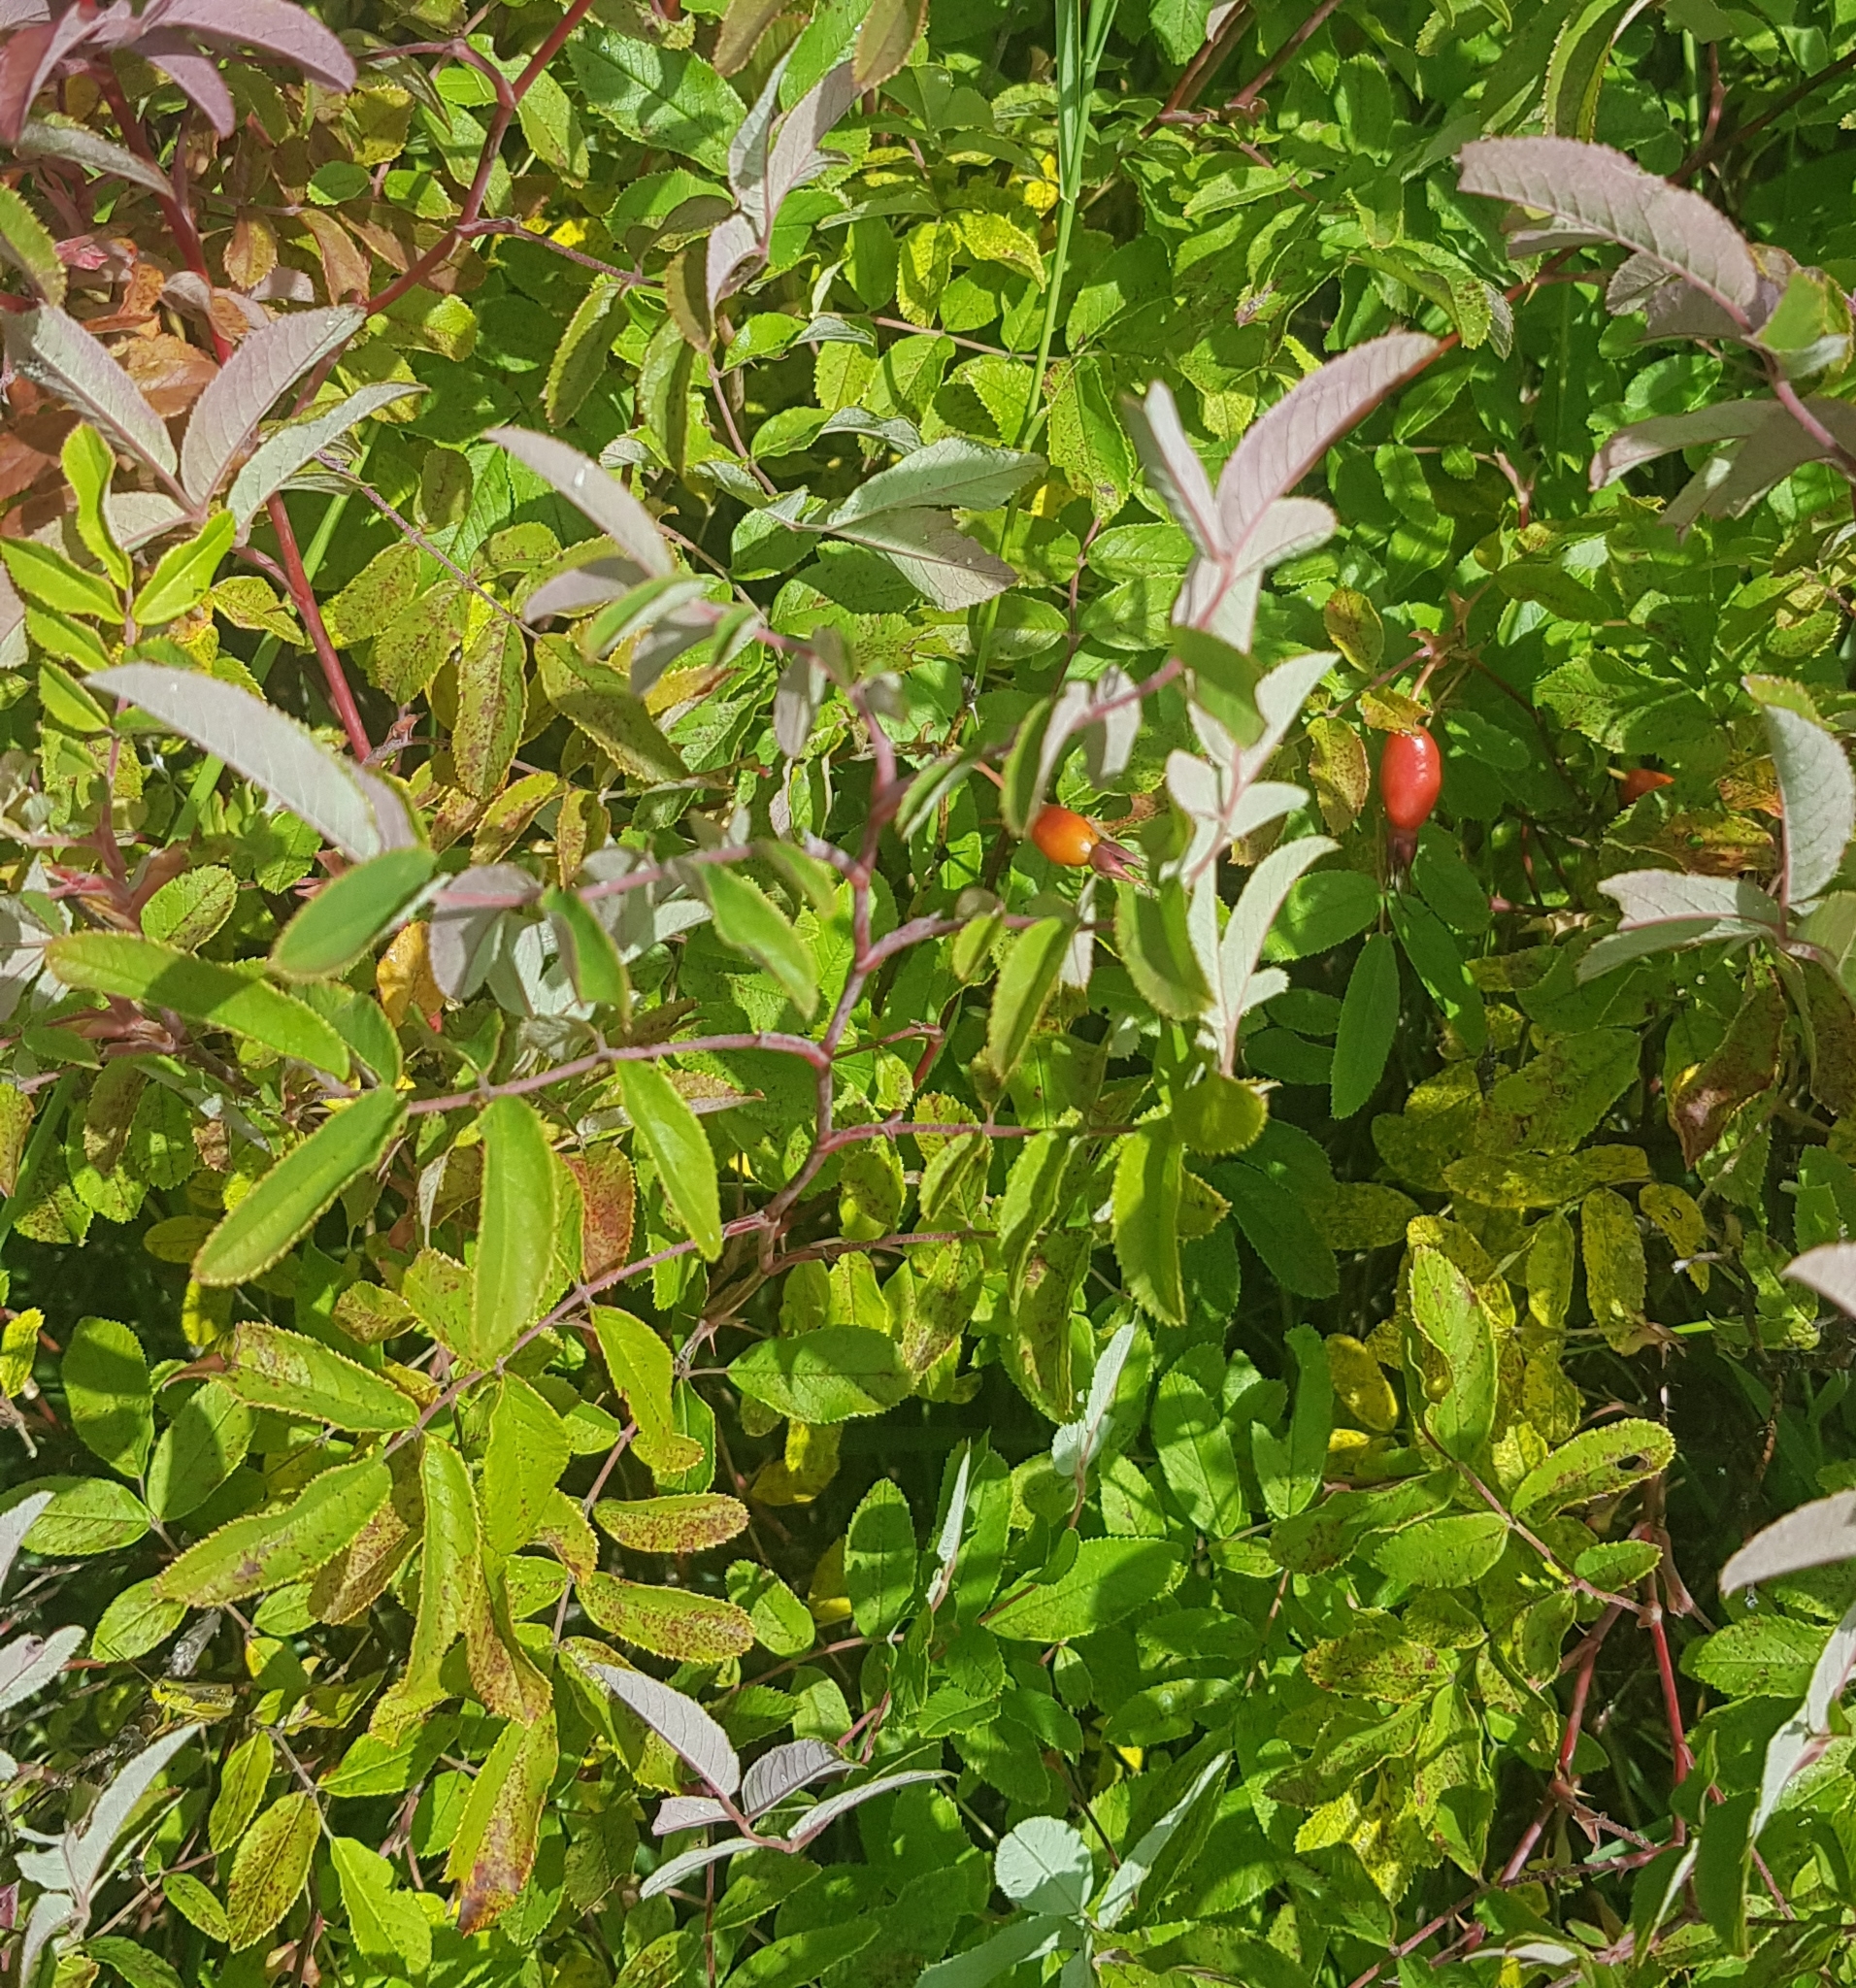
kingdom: Plantae
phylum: Tracheophyta
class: Magnoliopsida
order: Rosales
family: Rosaceae
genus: Rosa
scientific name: Rosa davurica
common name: Amur rose
